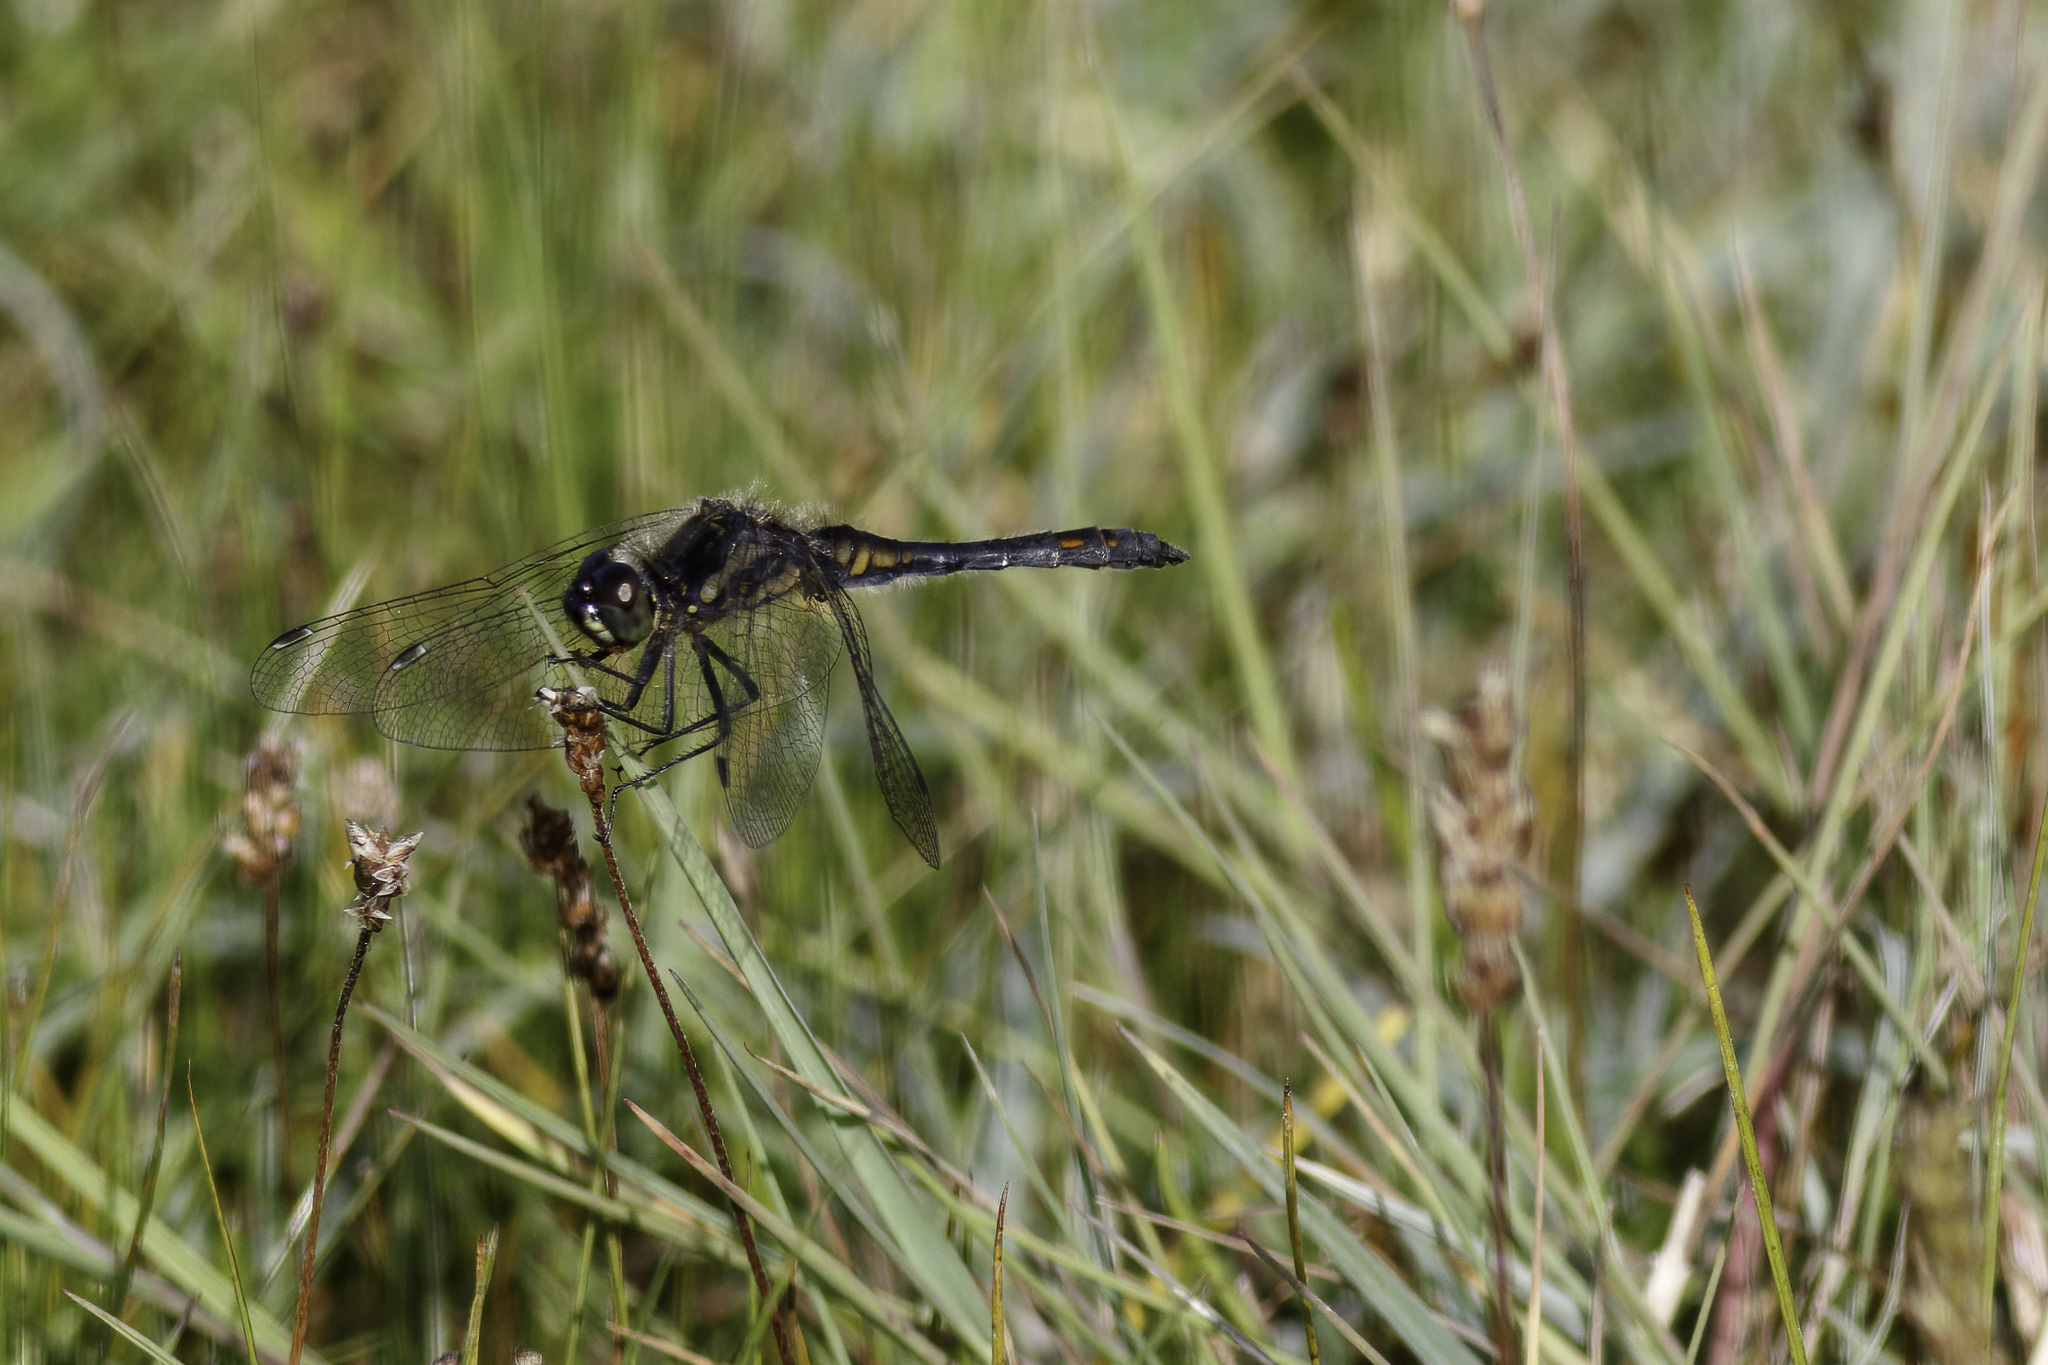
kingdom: Animalia
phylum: Arthropoda
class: Insecta
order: Odonata
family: Libellulidae
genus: Sympetrum
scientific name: Sympetrum danae
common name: Black darter
